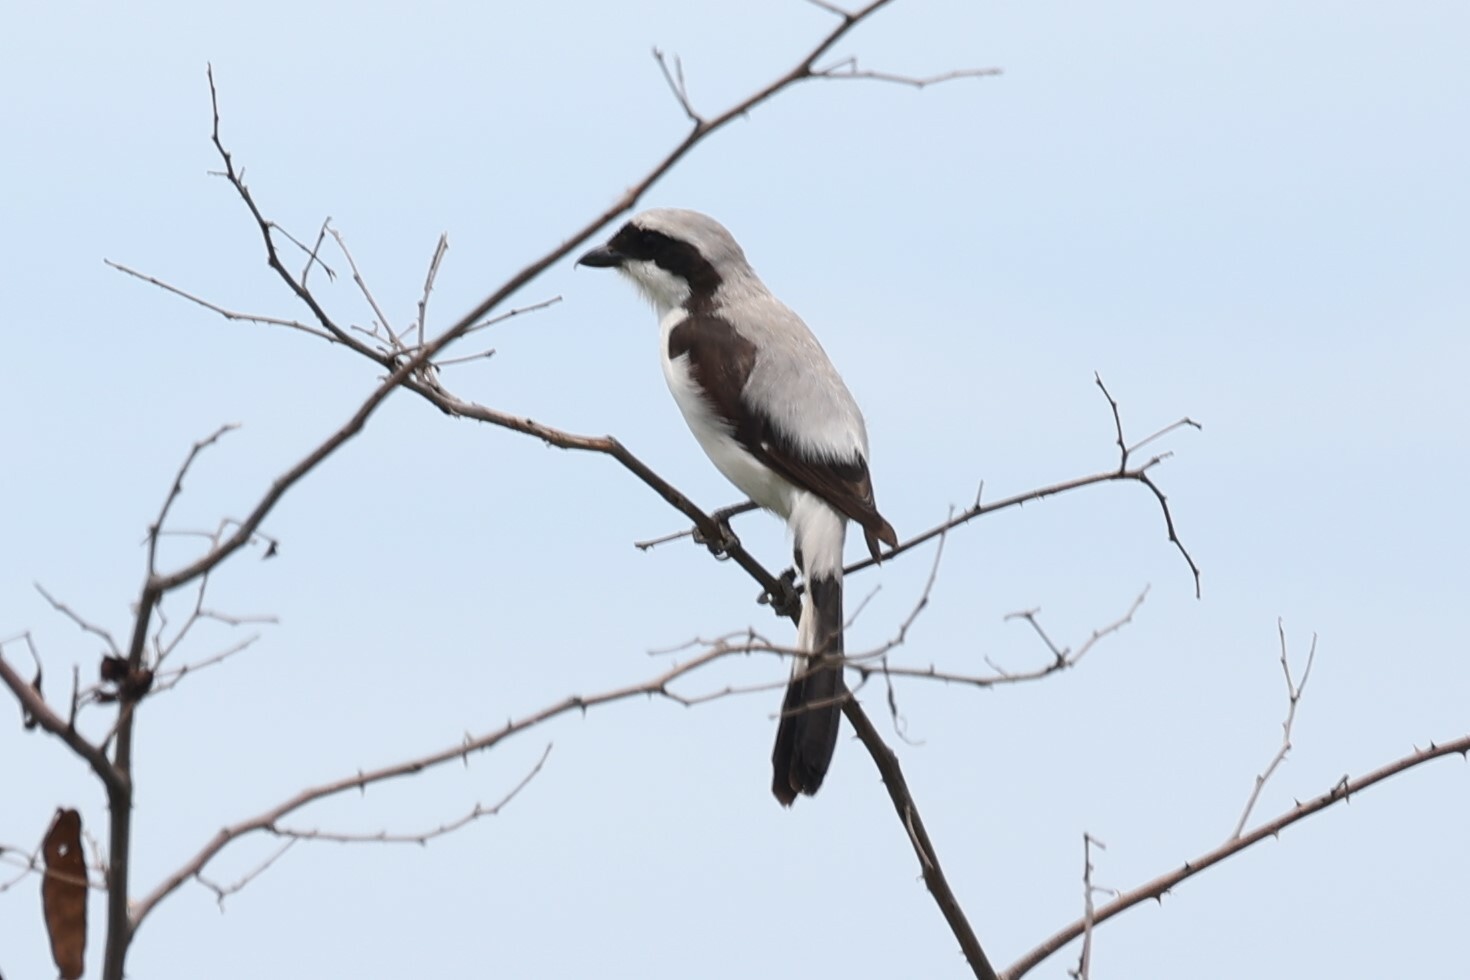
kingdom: Animalia
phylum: Chordata
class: Aves
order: Passeriformes
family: Laniidae
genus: Lanius
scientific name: Lanius excubitoroides
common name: Grey-backed fiscal
